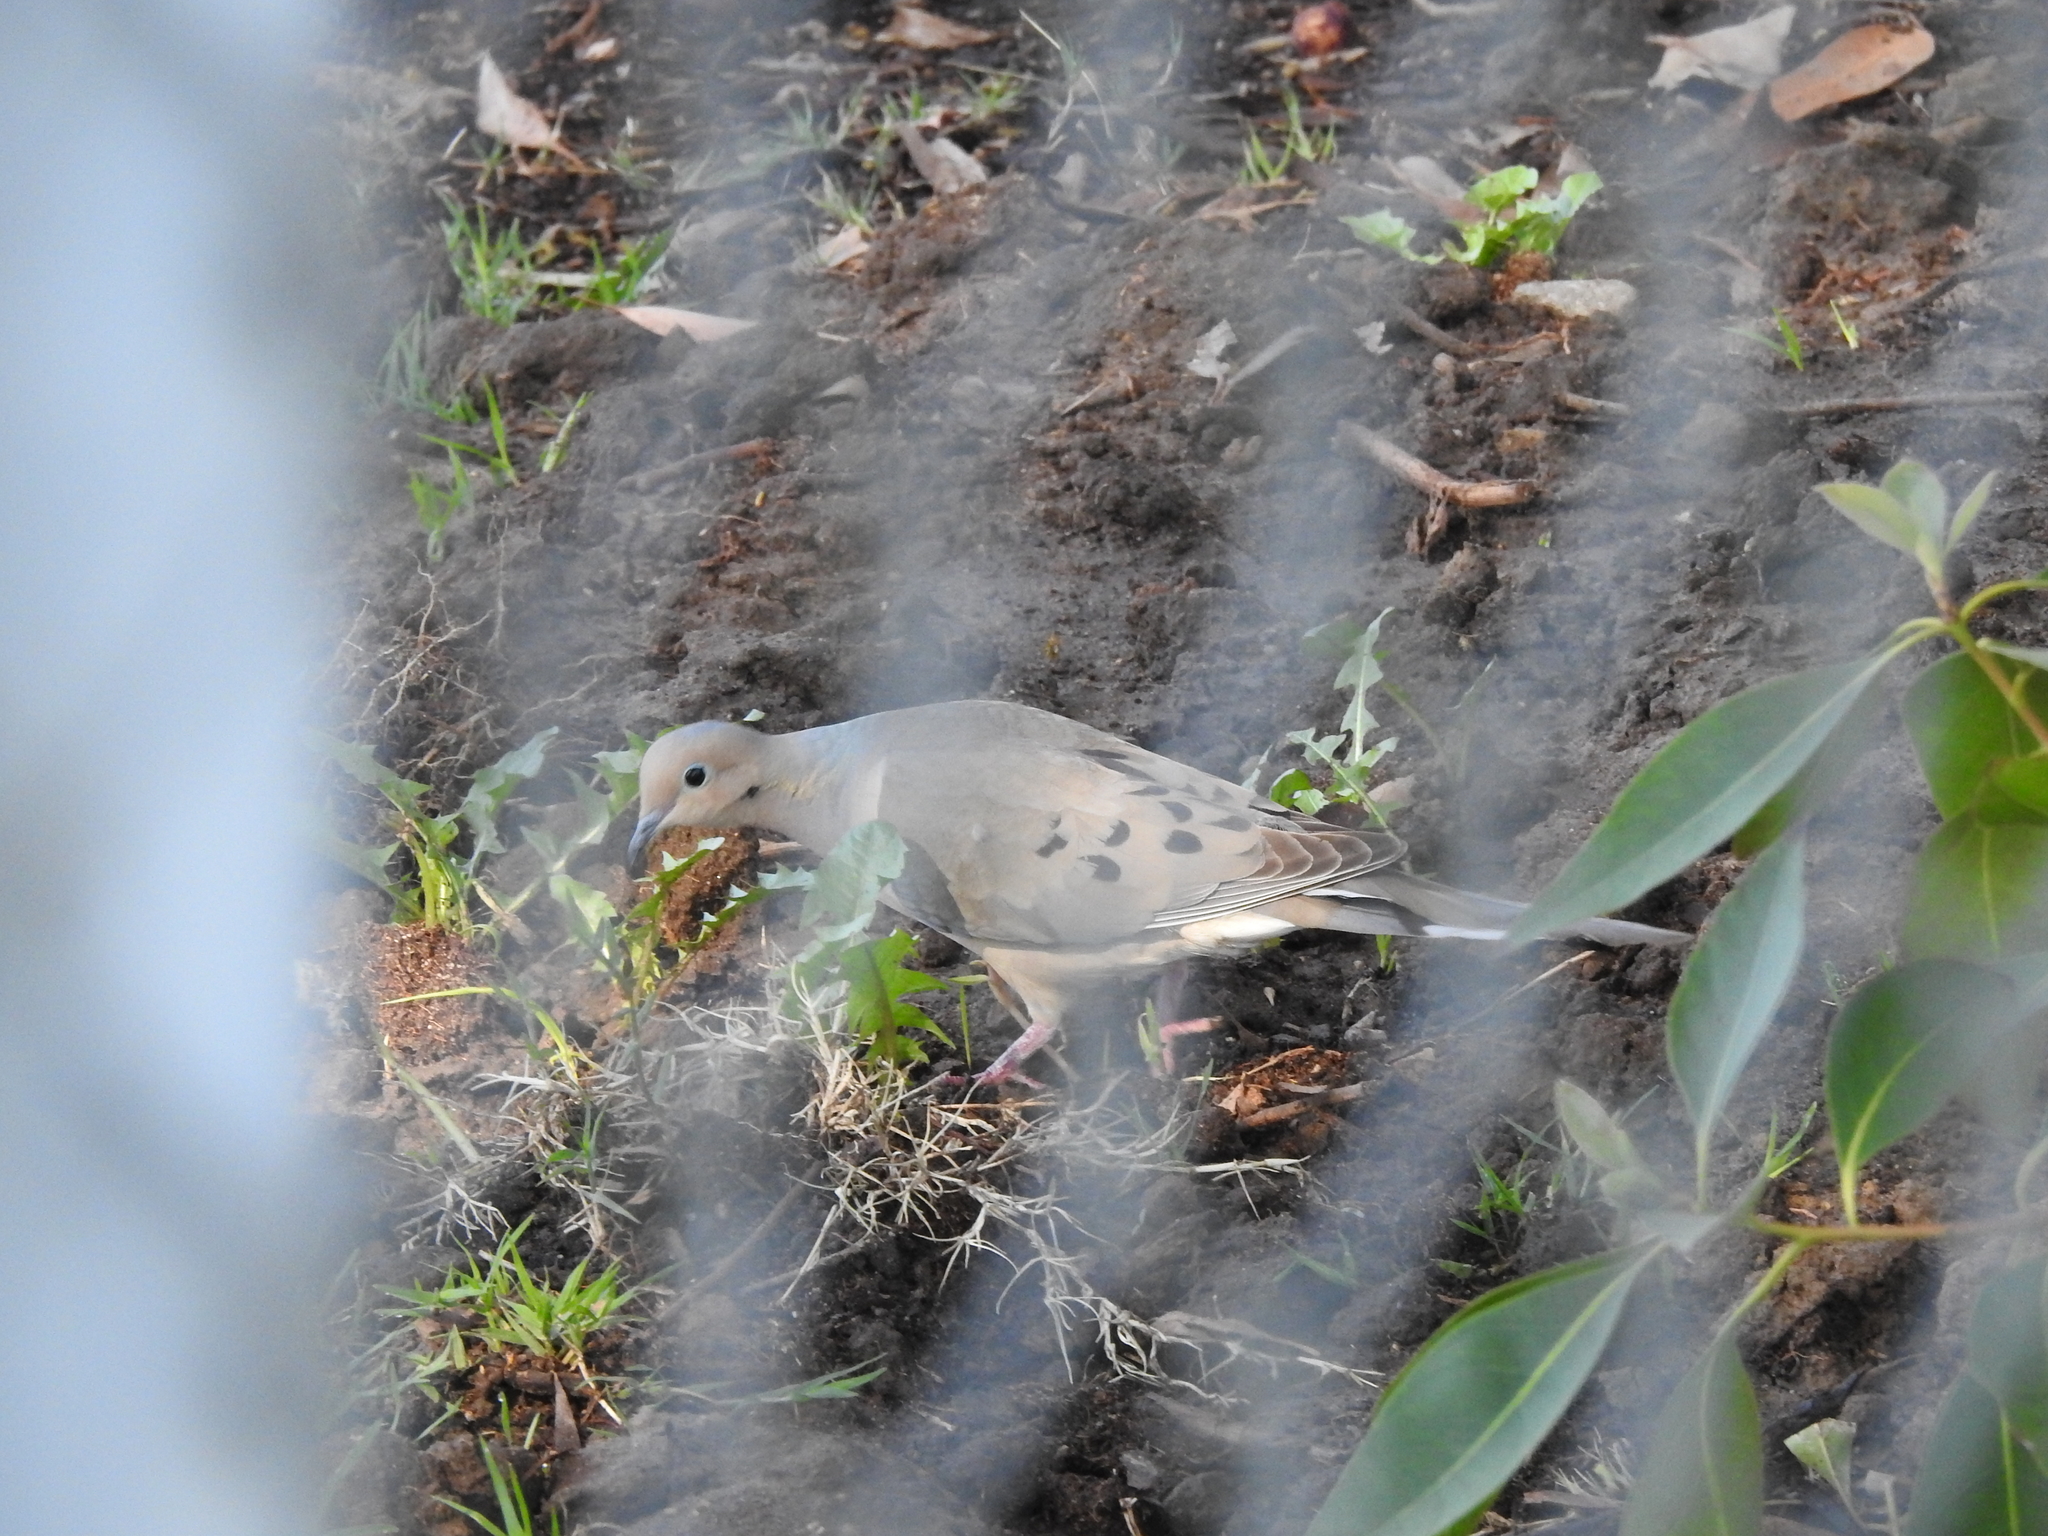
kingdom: Animalia
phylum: Chordata
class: Aves
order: Columbiformes
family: Columbidae
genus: Zenaida
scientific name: Zenaida macroura
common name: Mourning dove
